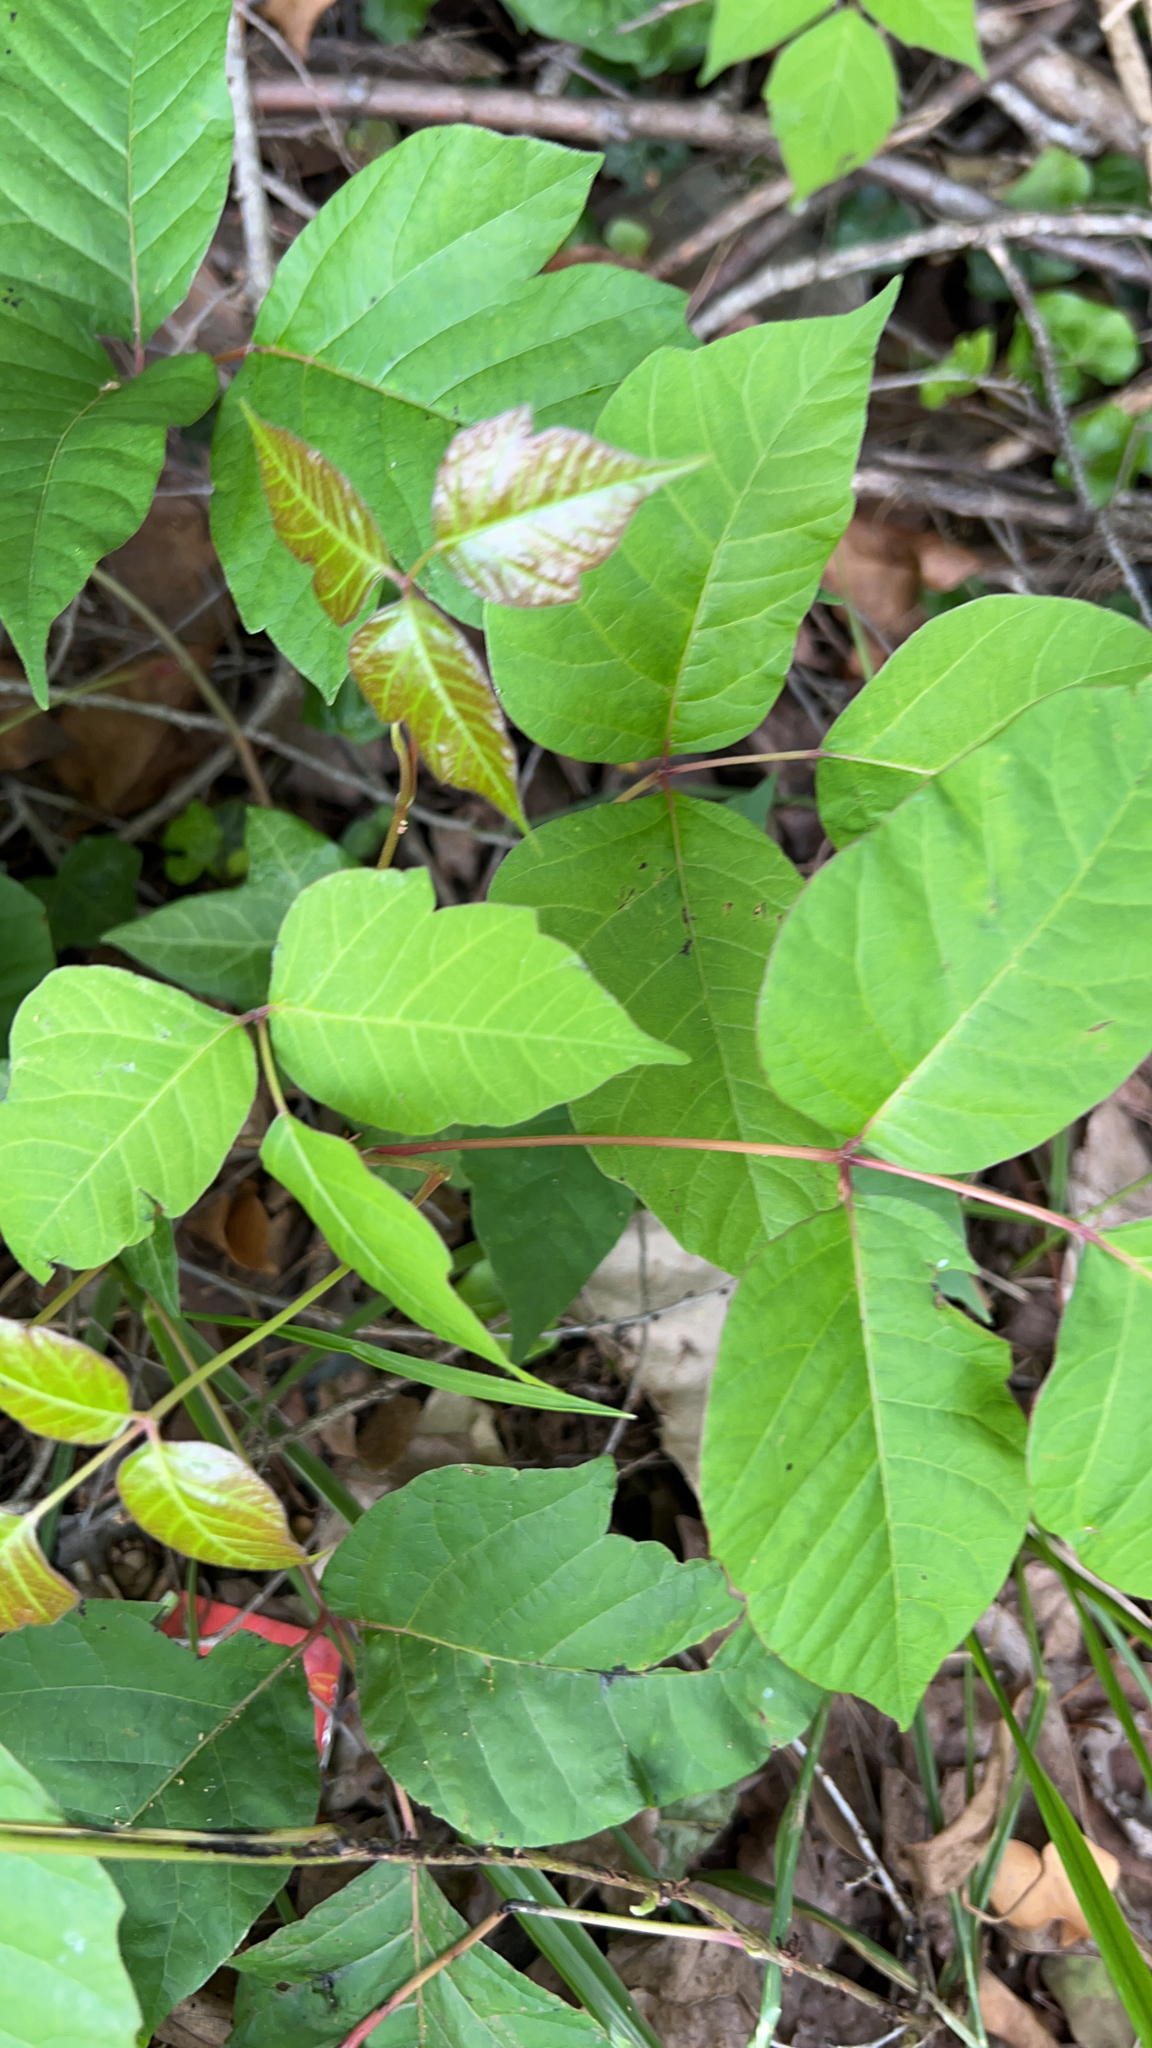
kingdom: Plantae
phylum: Tracheophyta
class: Magnoliopsida
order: Sapindales
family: Anacardiaceae
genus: Toxicodendron
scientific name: Toxicodendron radicans
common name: Poison ivy
